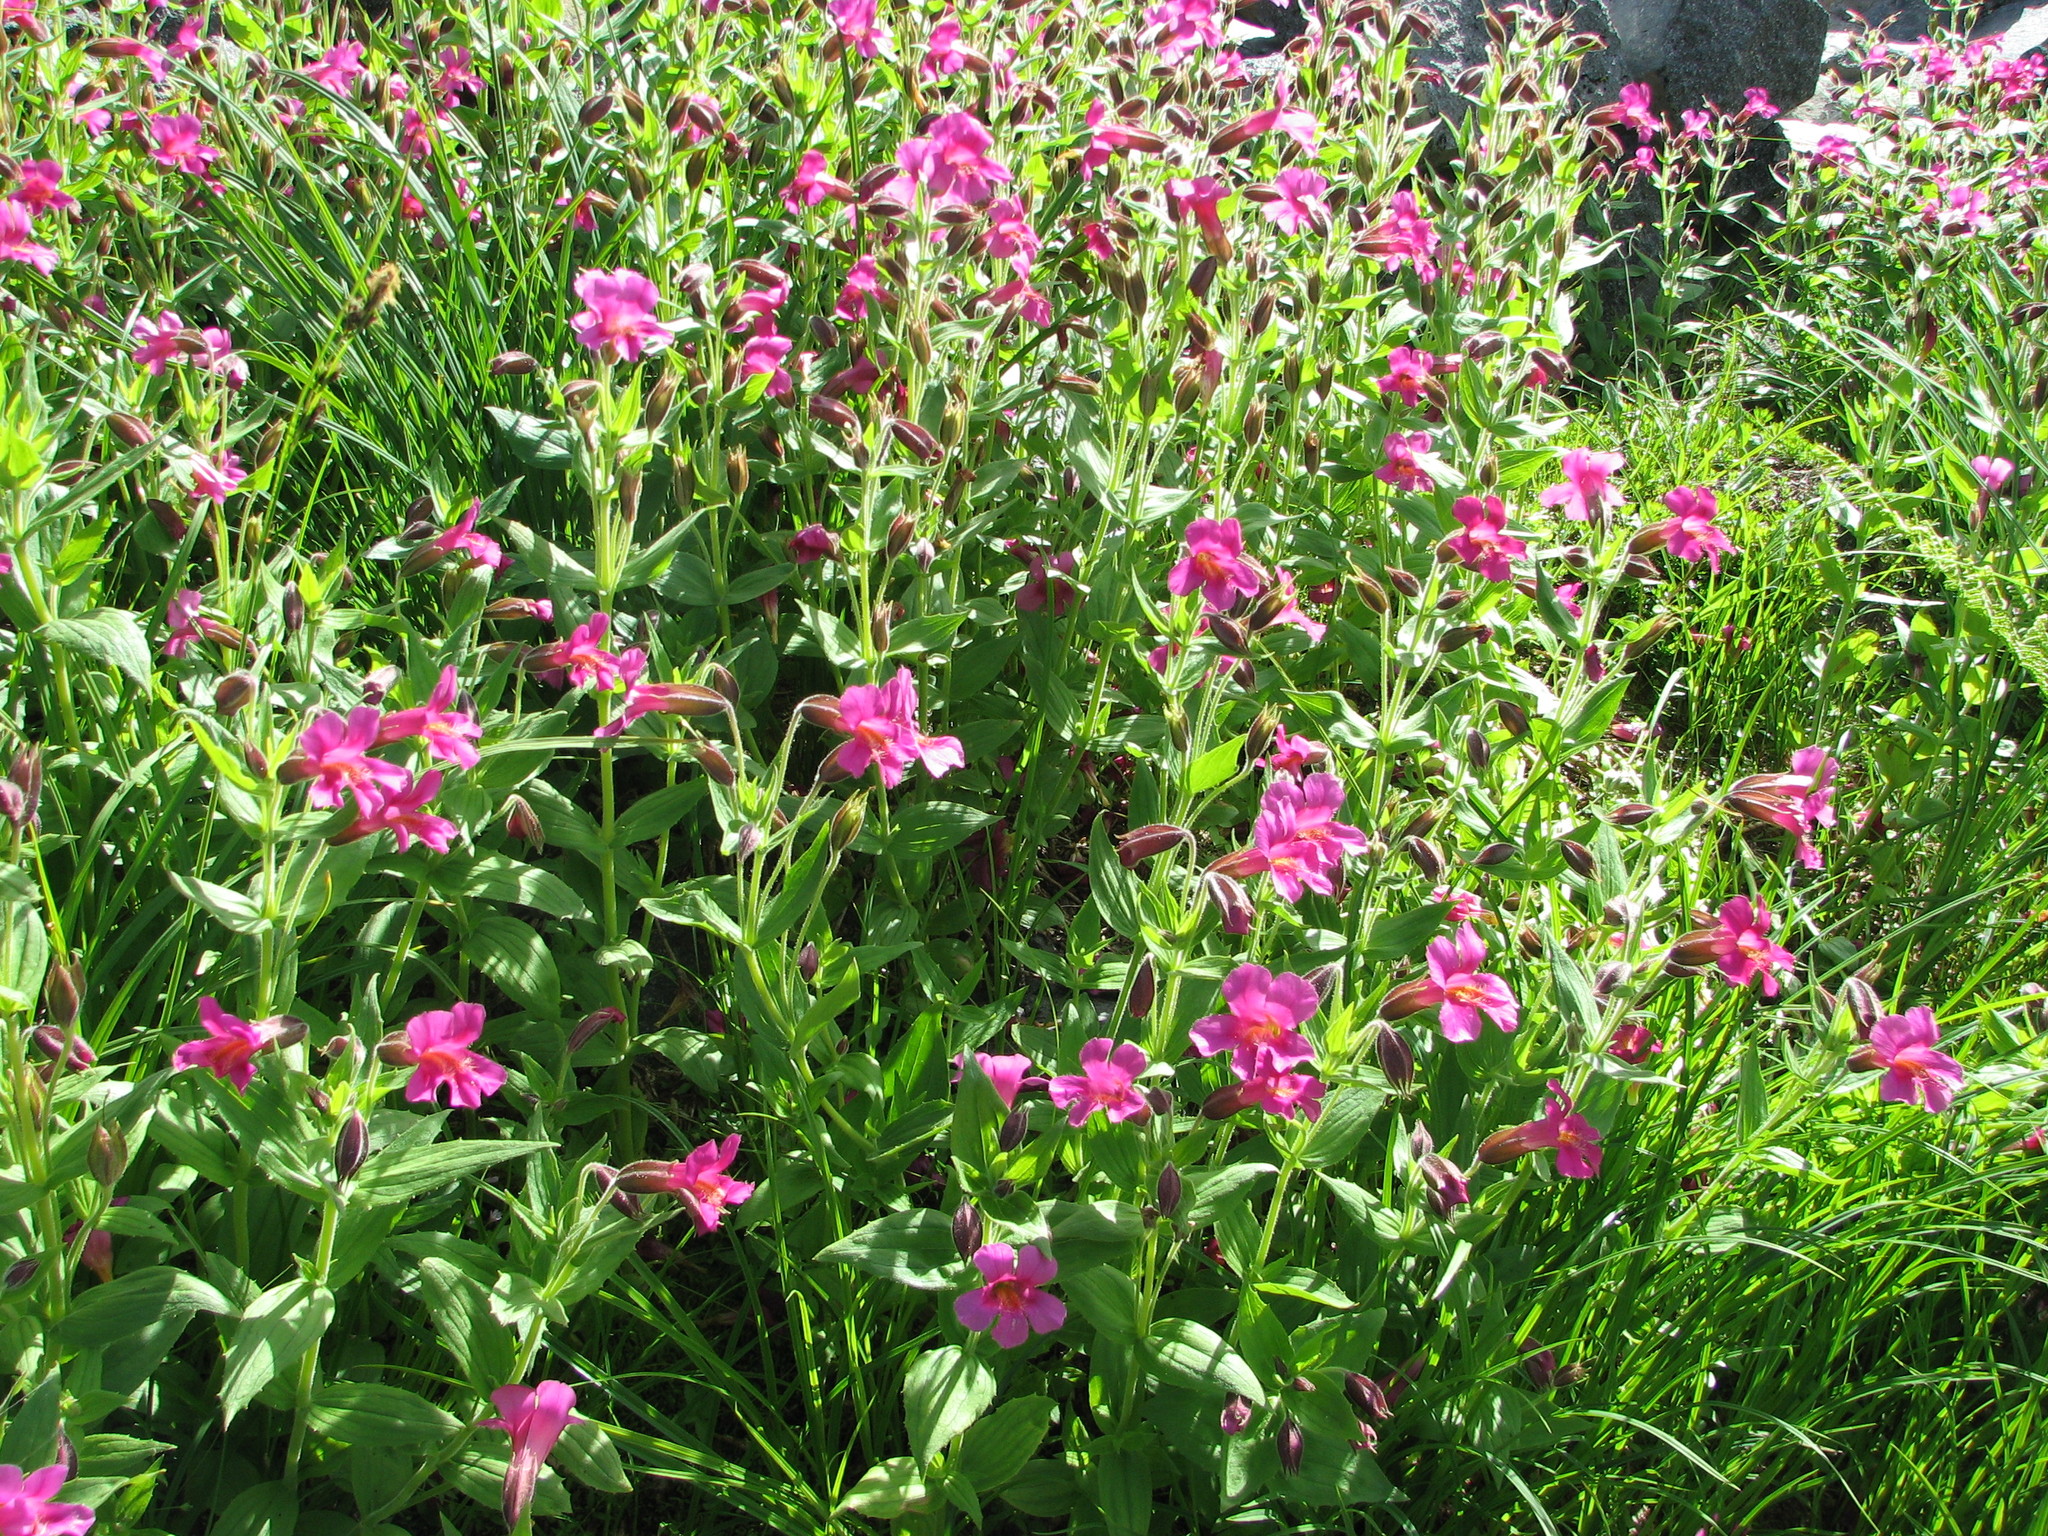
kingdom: Plantae
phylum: Tracheophyta
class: Magnoliopsida
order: Lamiales
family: Phrymaceae
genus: Erythranthe
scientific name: Erythranthe lewisii
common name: Lewis's monkey-flower
